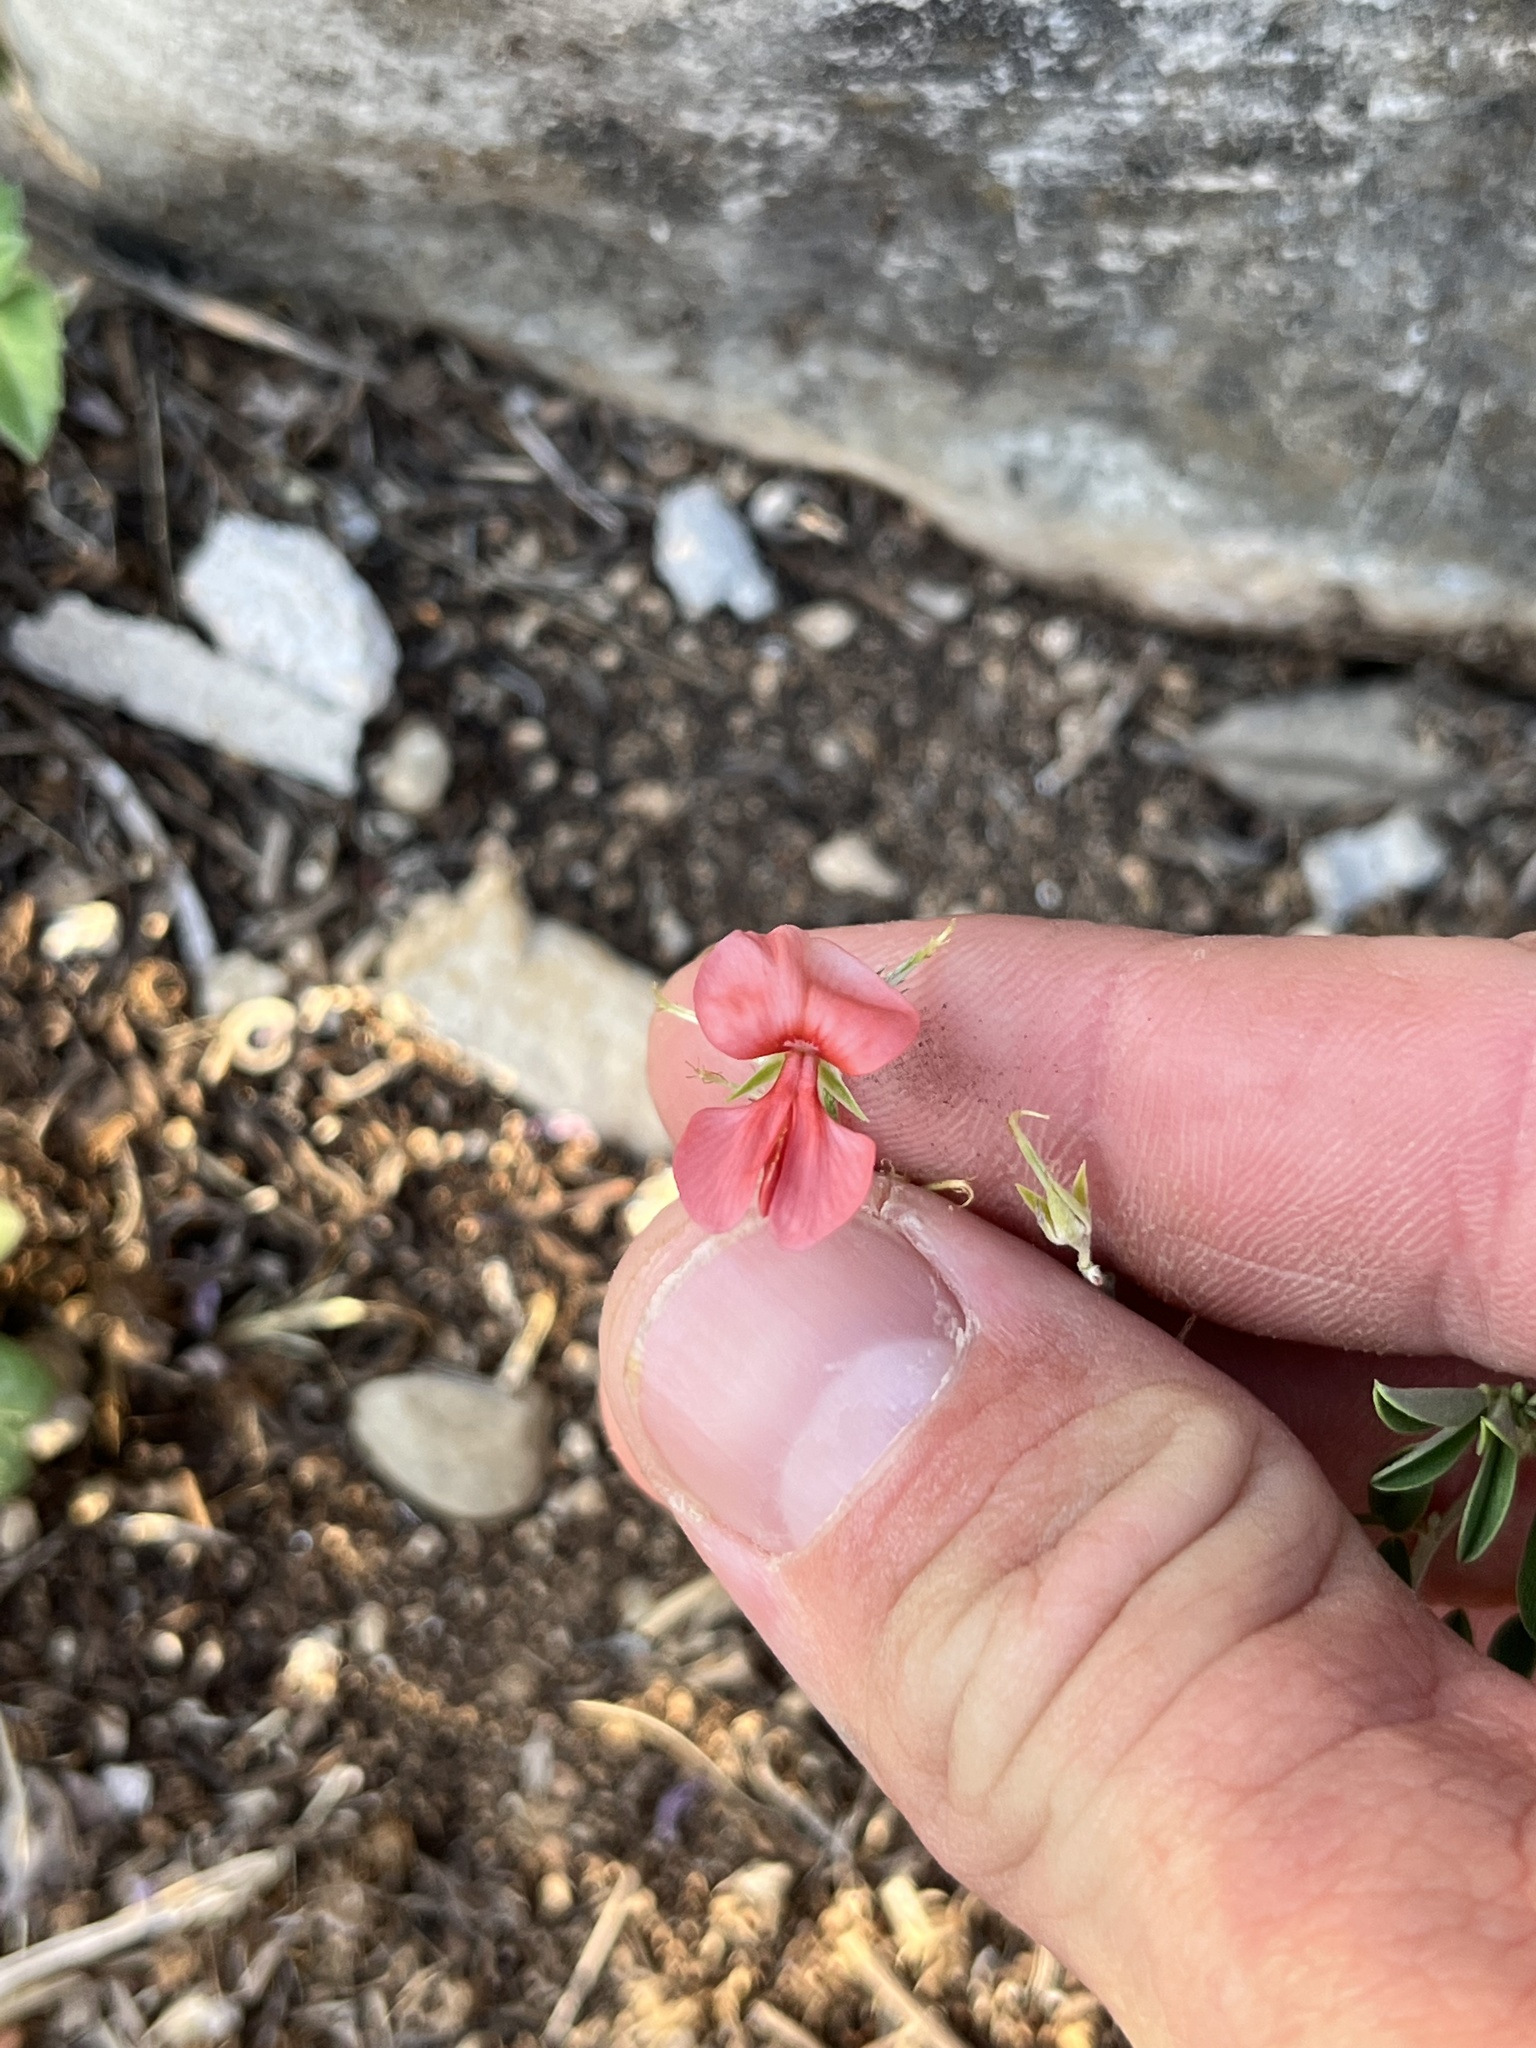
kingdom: Plantae
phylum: Tracheophyta
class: Magnoliopsida
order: Fabales
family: Fabaceae
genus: Indigofera
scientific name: Indigofera miniata
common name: Coast indigo
